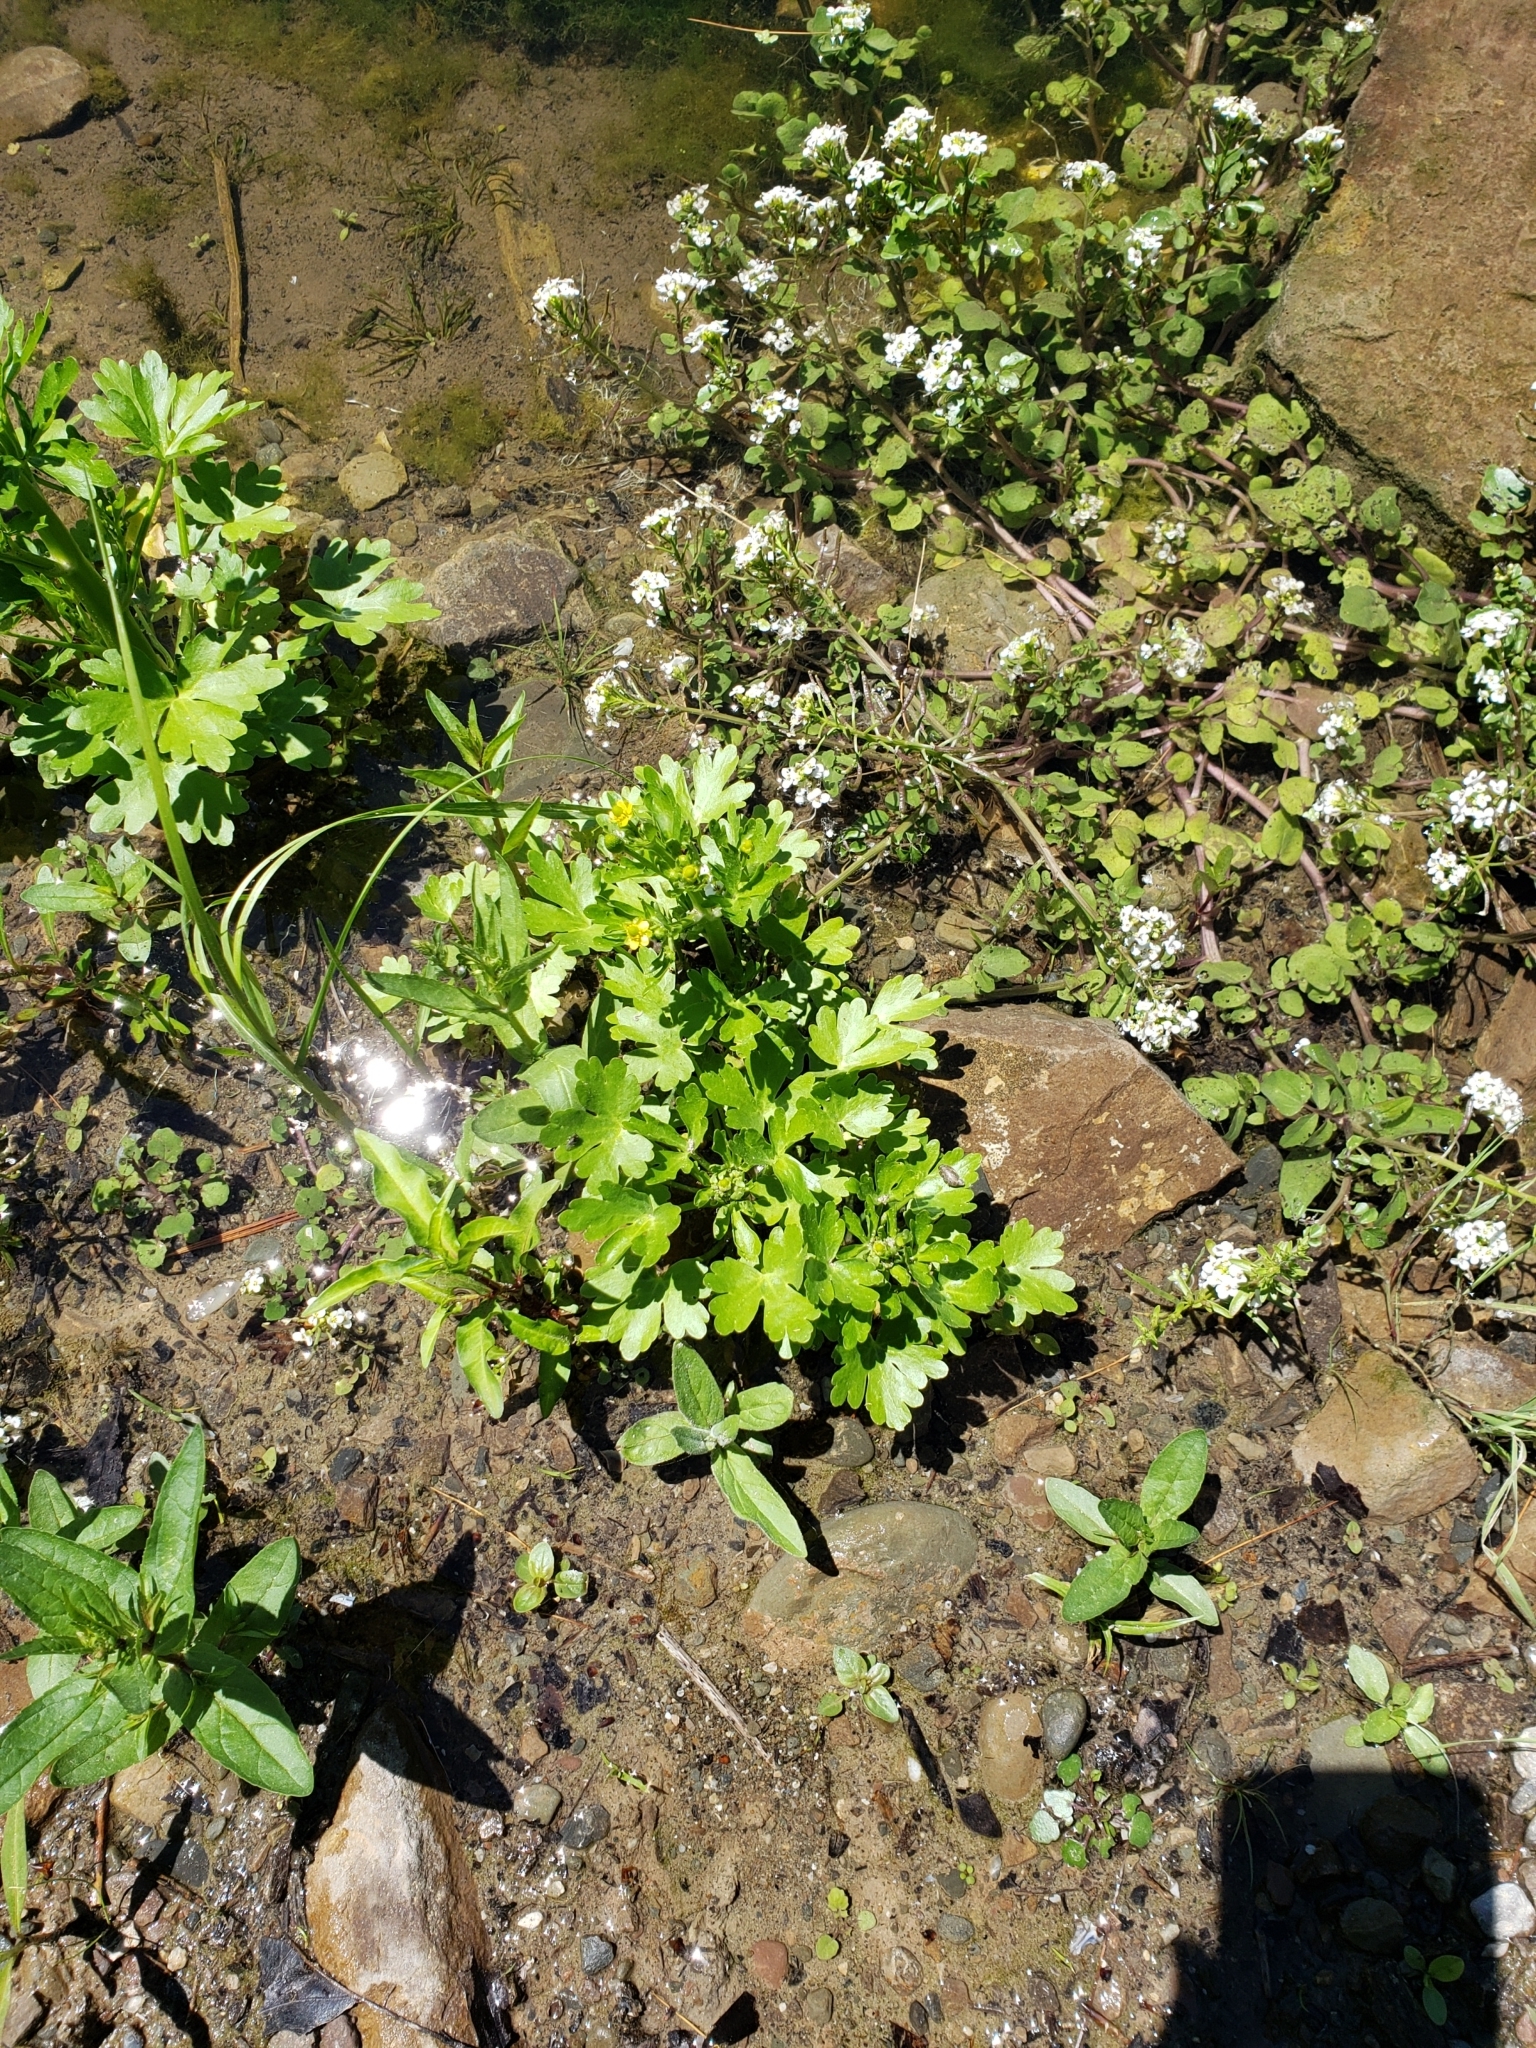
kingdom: Plantae
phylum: Tracheophyta
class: Magnoliopsida
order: Ranunculales
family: Ranunculaceae
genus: Ranunculus
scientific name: Ranunculus sceleratus
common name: Celery-leaved buttercup
